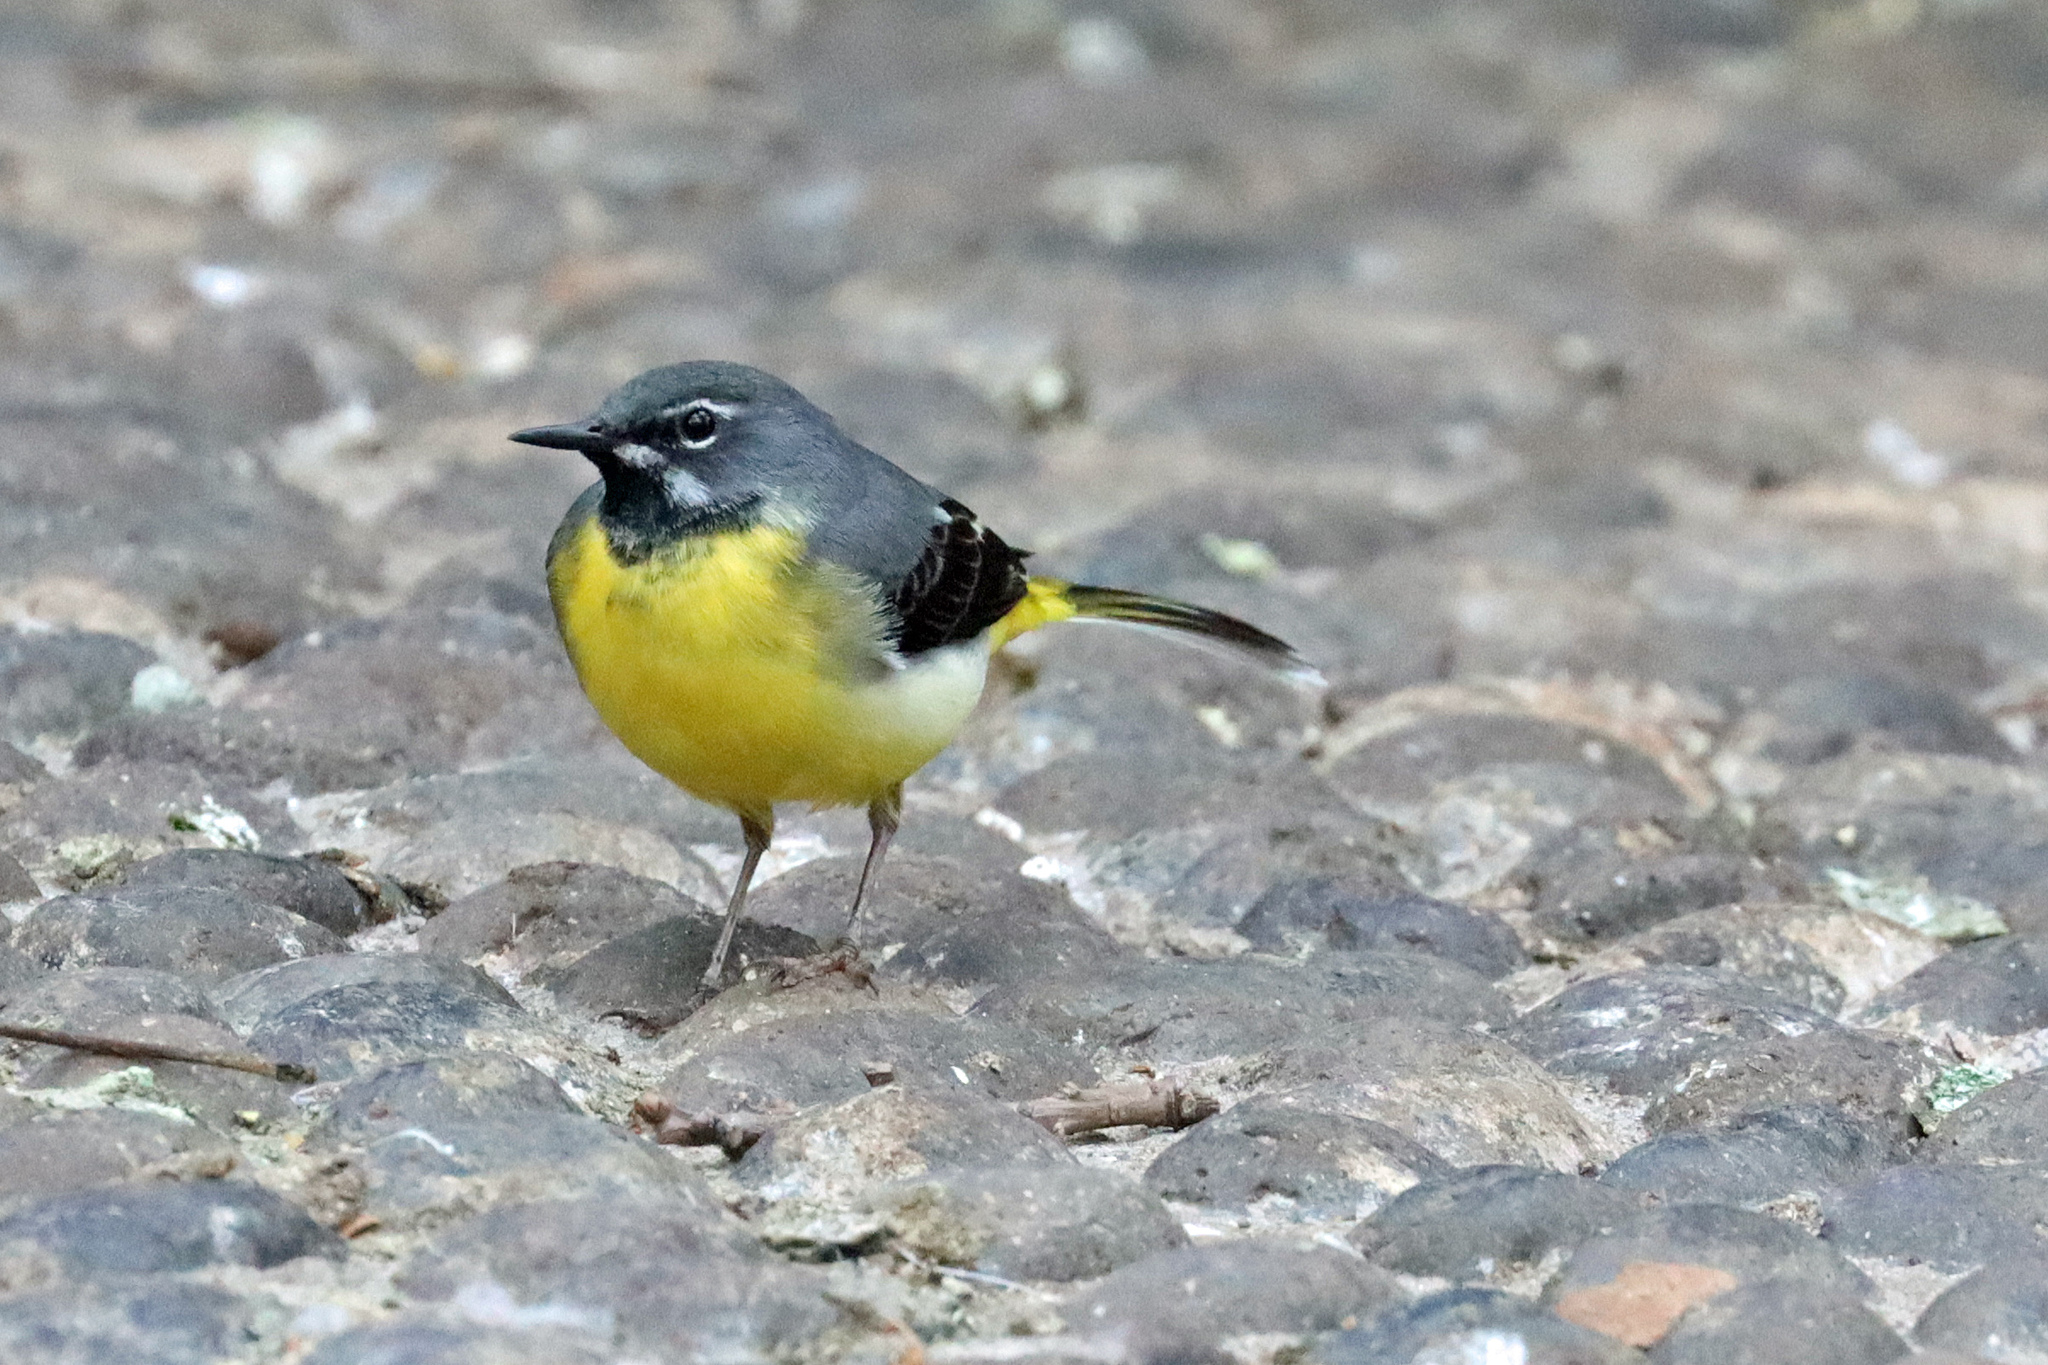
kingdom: Animalia
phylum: Chordata
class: Aves
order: Passeriformes
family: Motacillidae
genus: Motacilla
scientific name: Motacilla cinerea
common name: Grey wagtail
